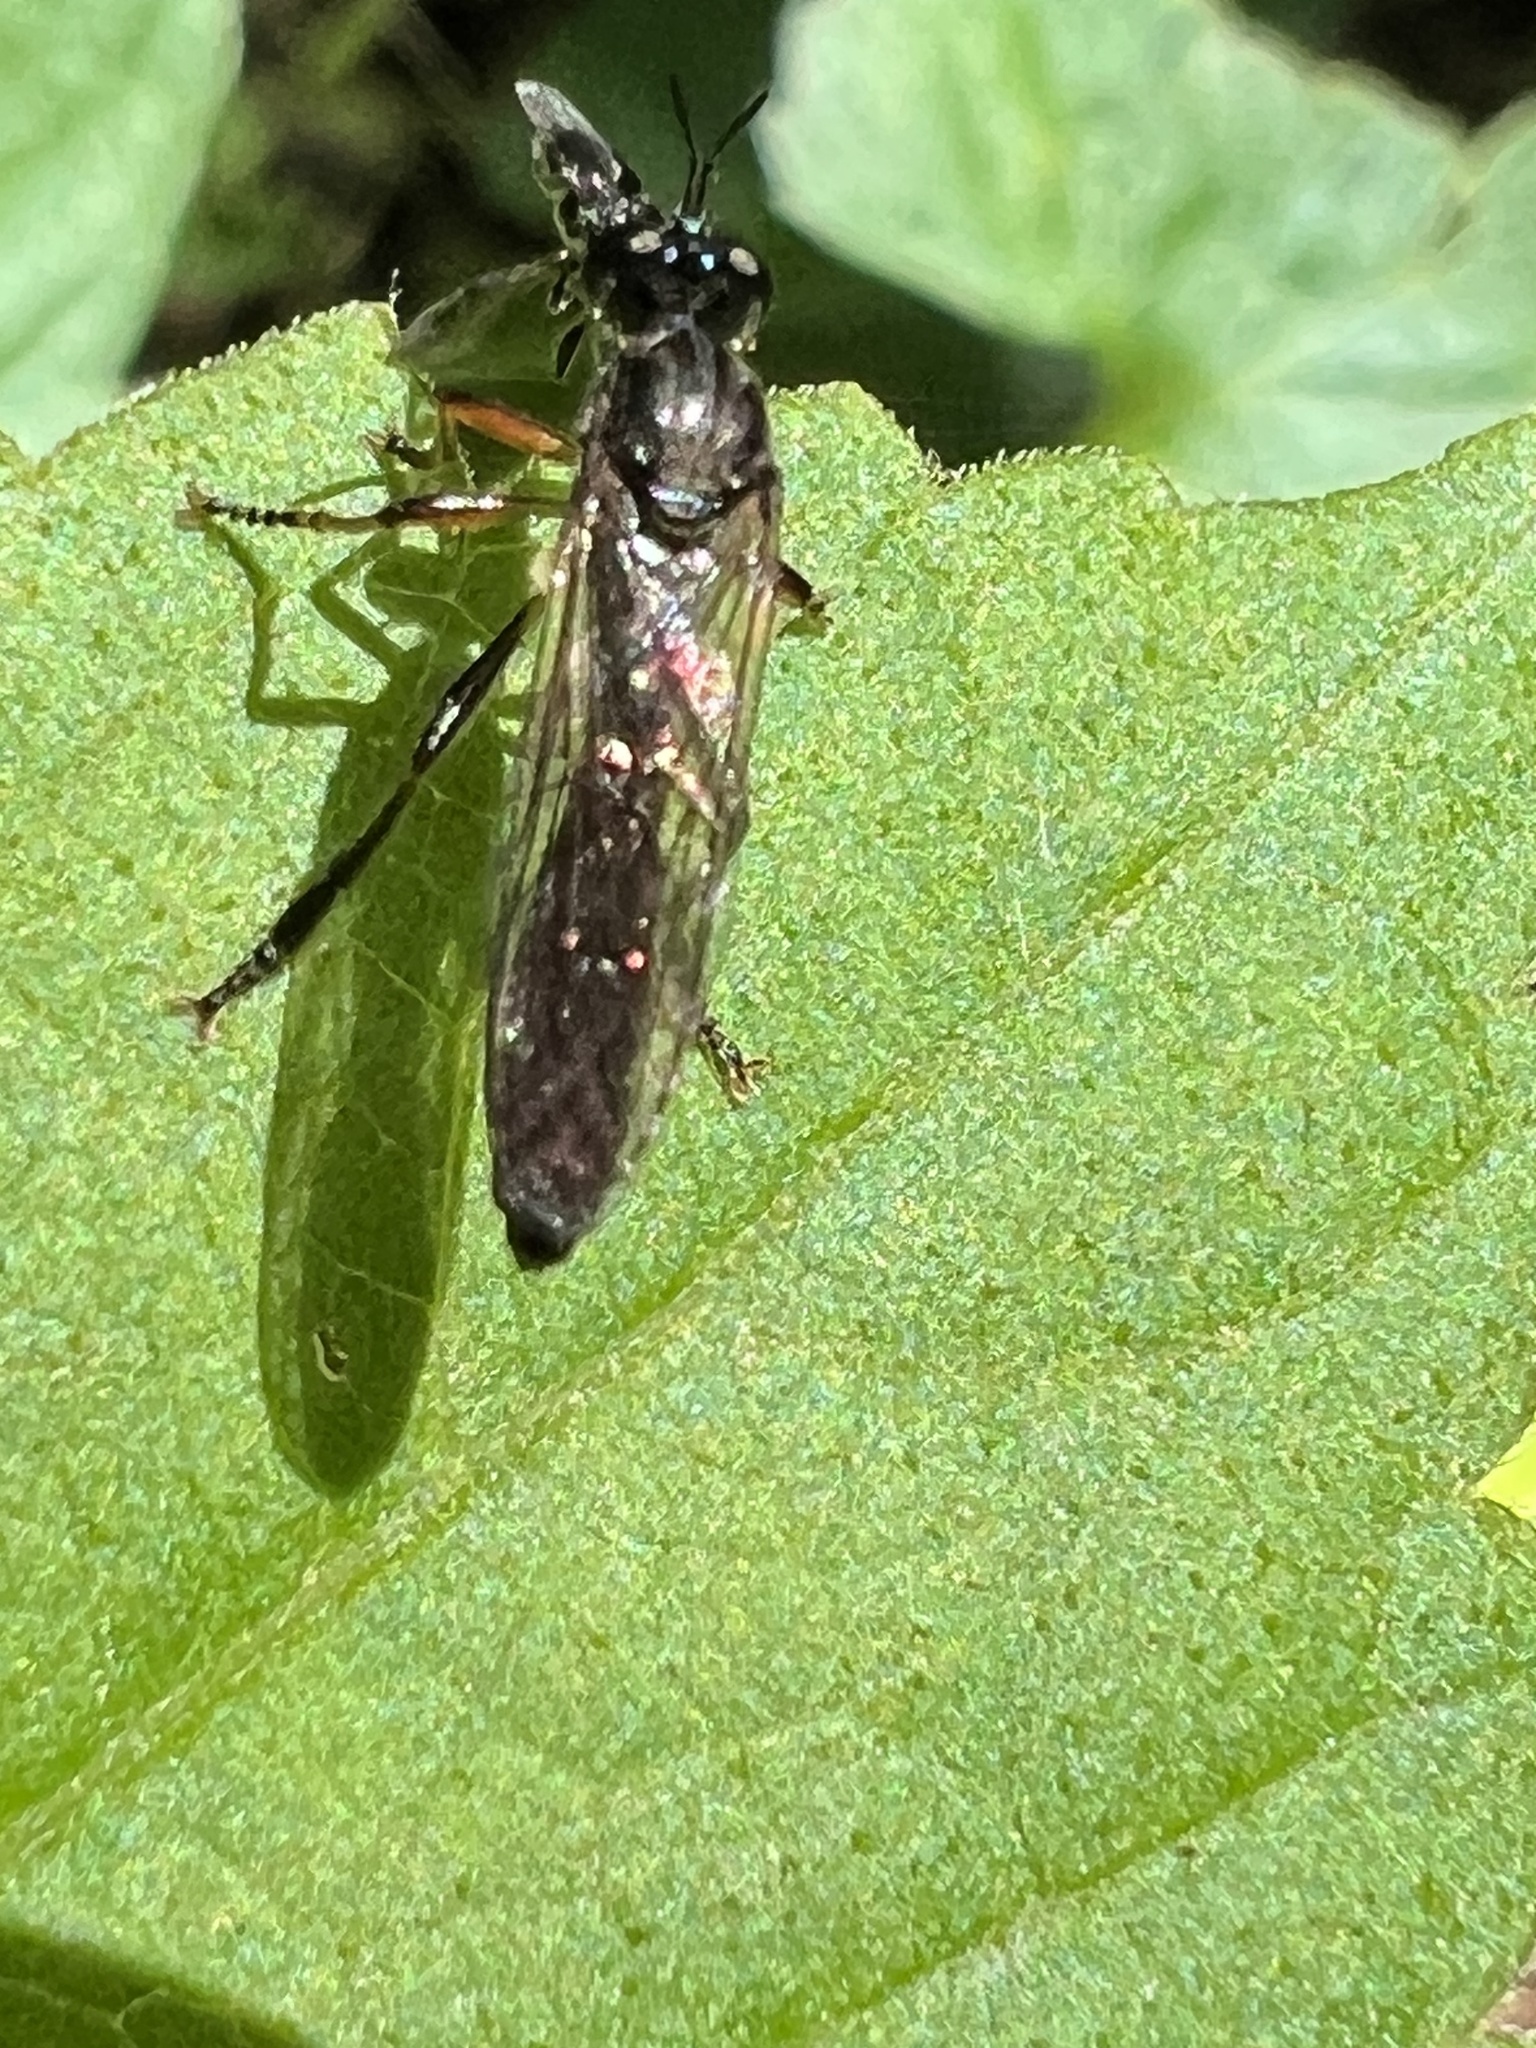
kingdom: Animalia
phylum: Arthropoda
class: Insecta
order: Diptera
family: Asilidae
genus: Dioctria
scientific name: Dioctria hyalipennis
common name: Stripe-legged robberfly
